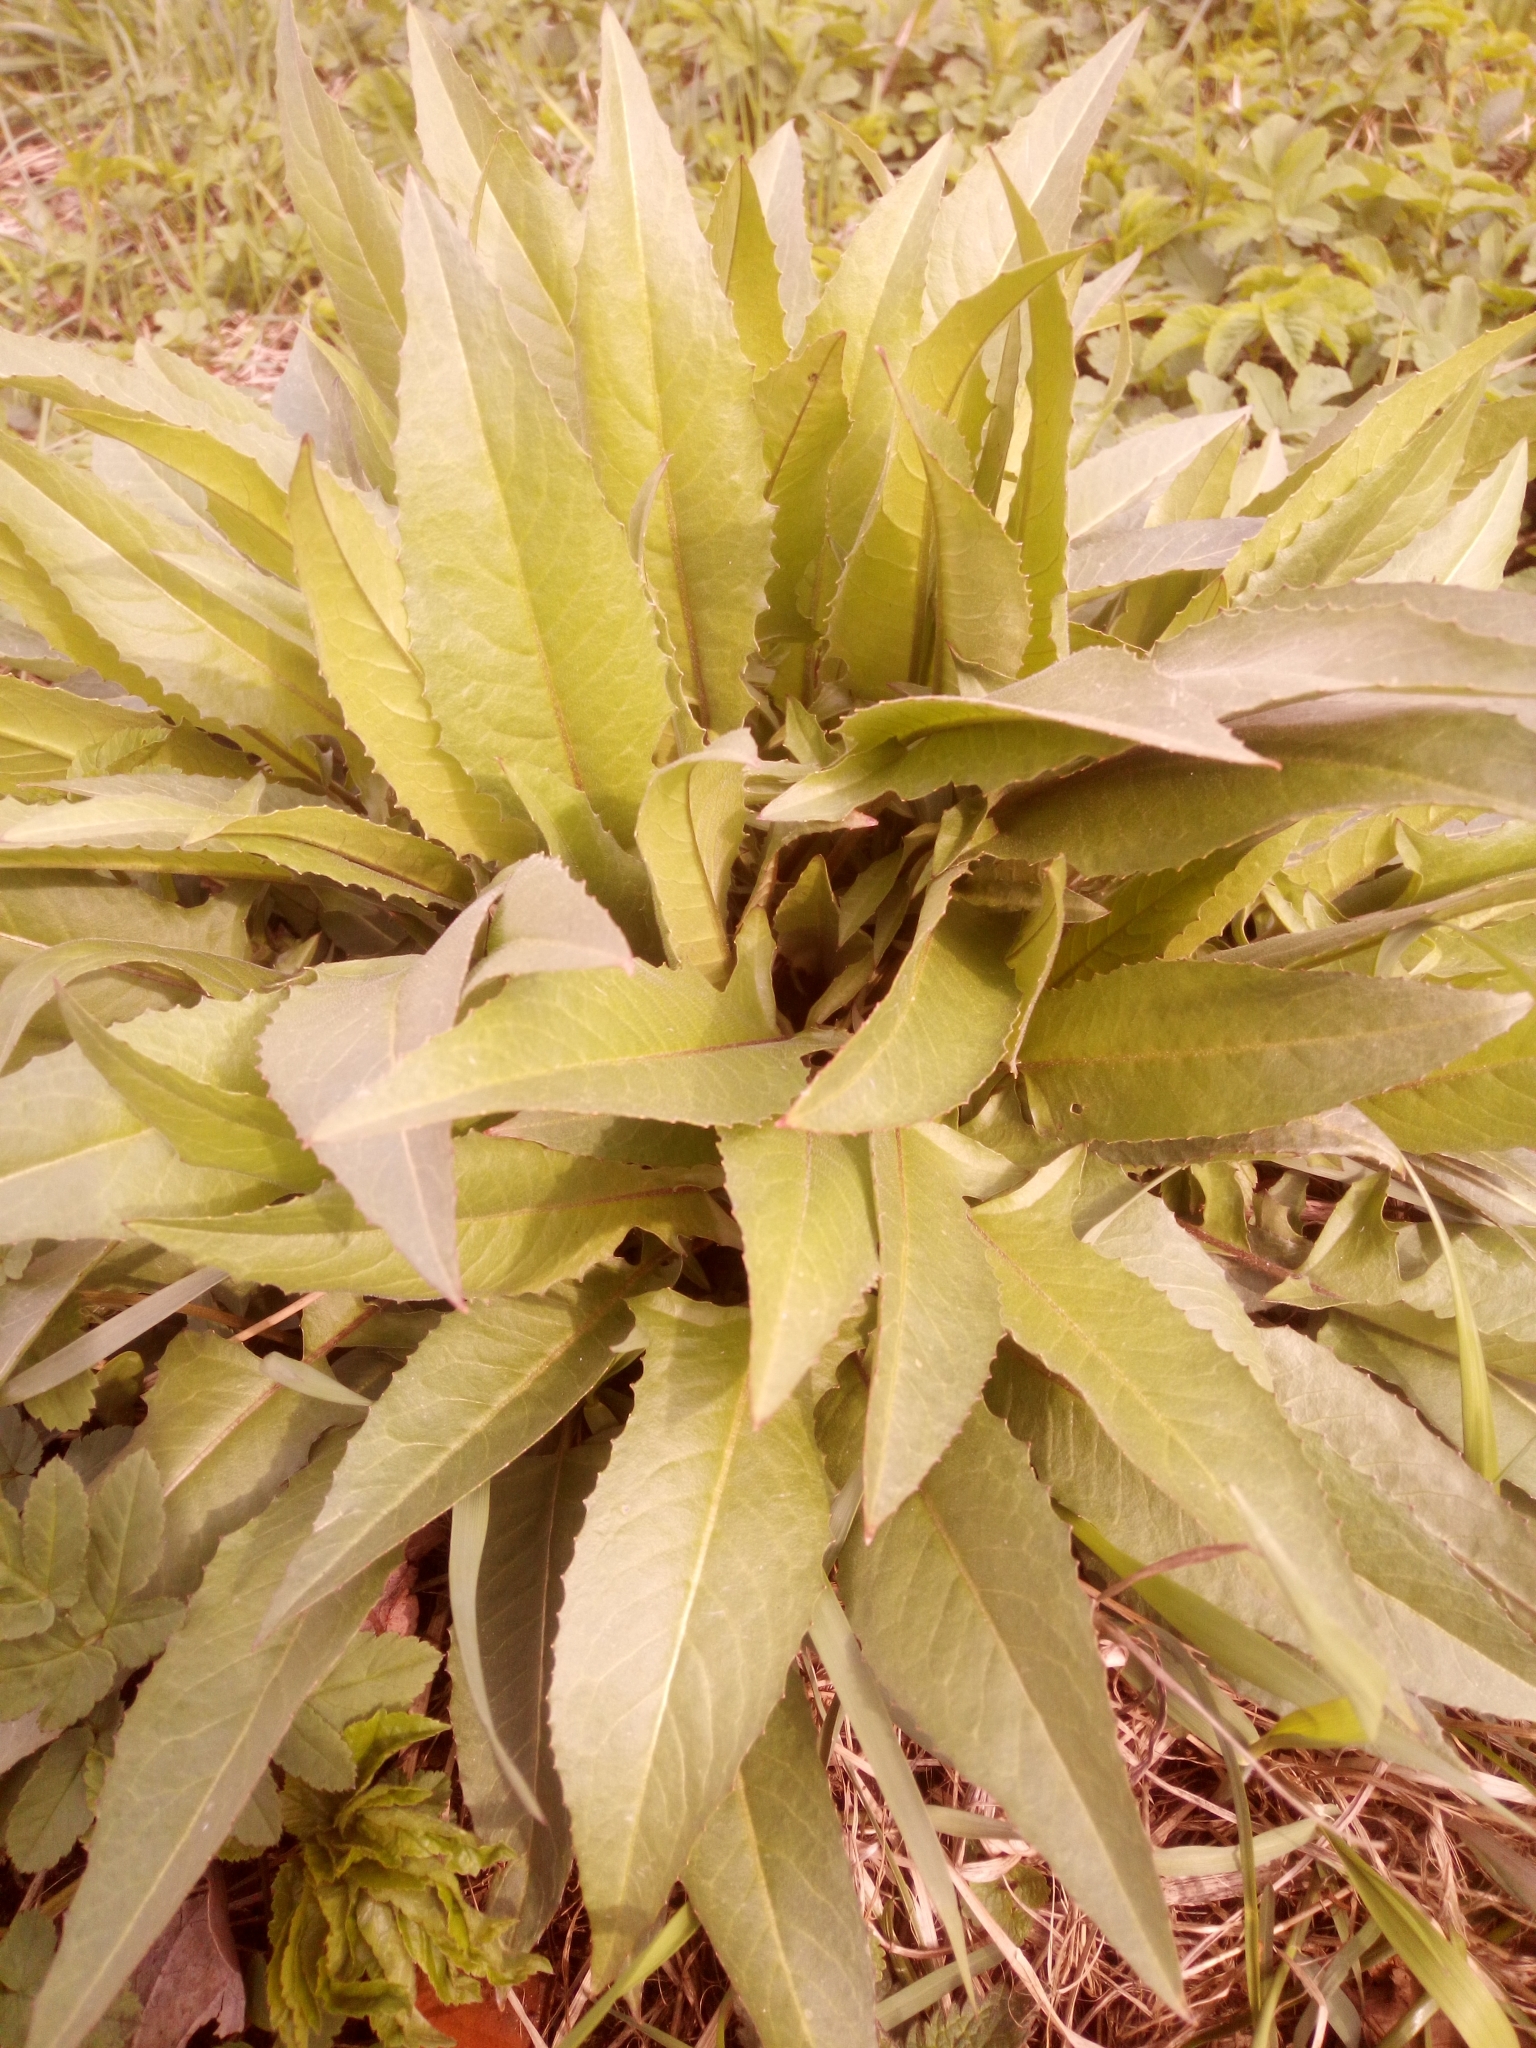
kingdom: Plantae
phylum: Tracheophyta
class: Magnoliopsida
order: Brassicales
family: Brassicaceae
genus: Bunias
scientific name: Bunias orientalis
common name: Warty-cabbage
